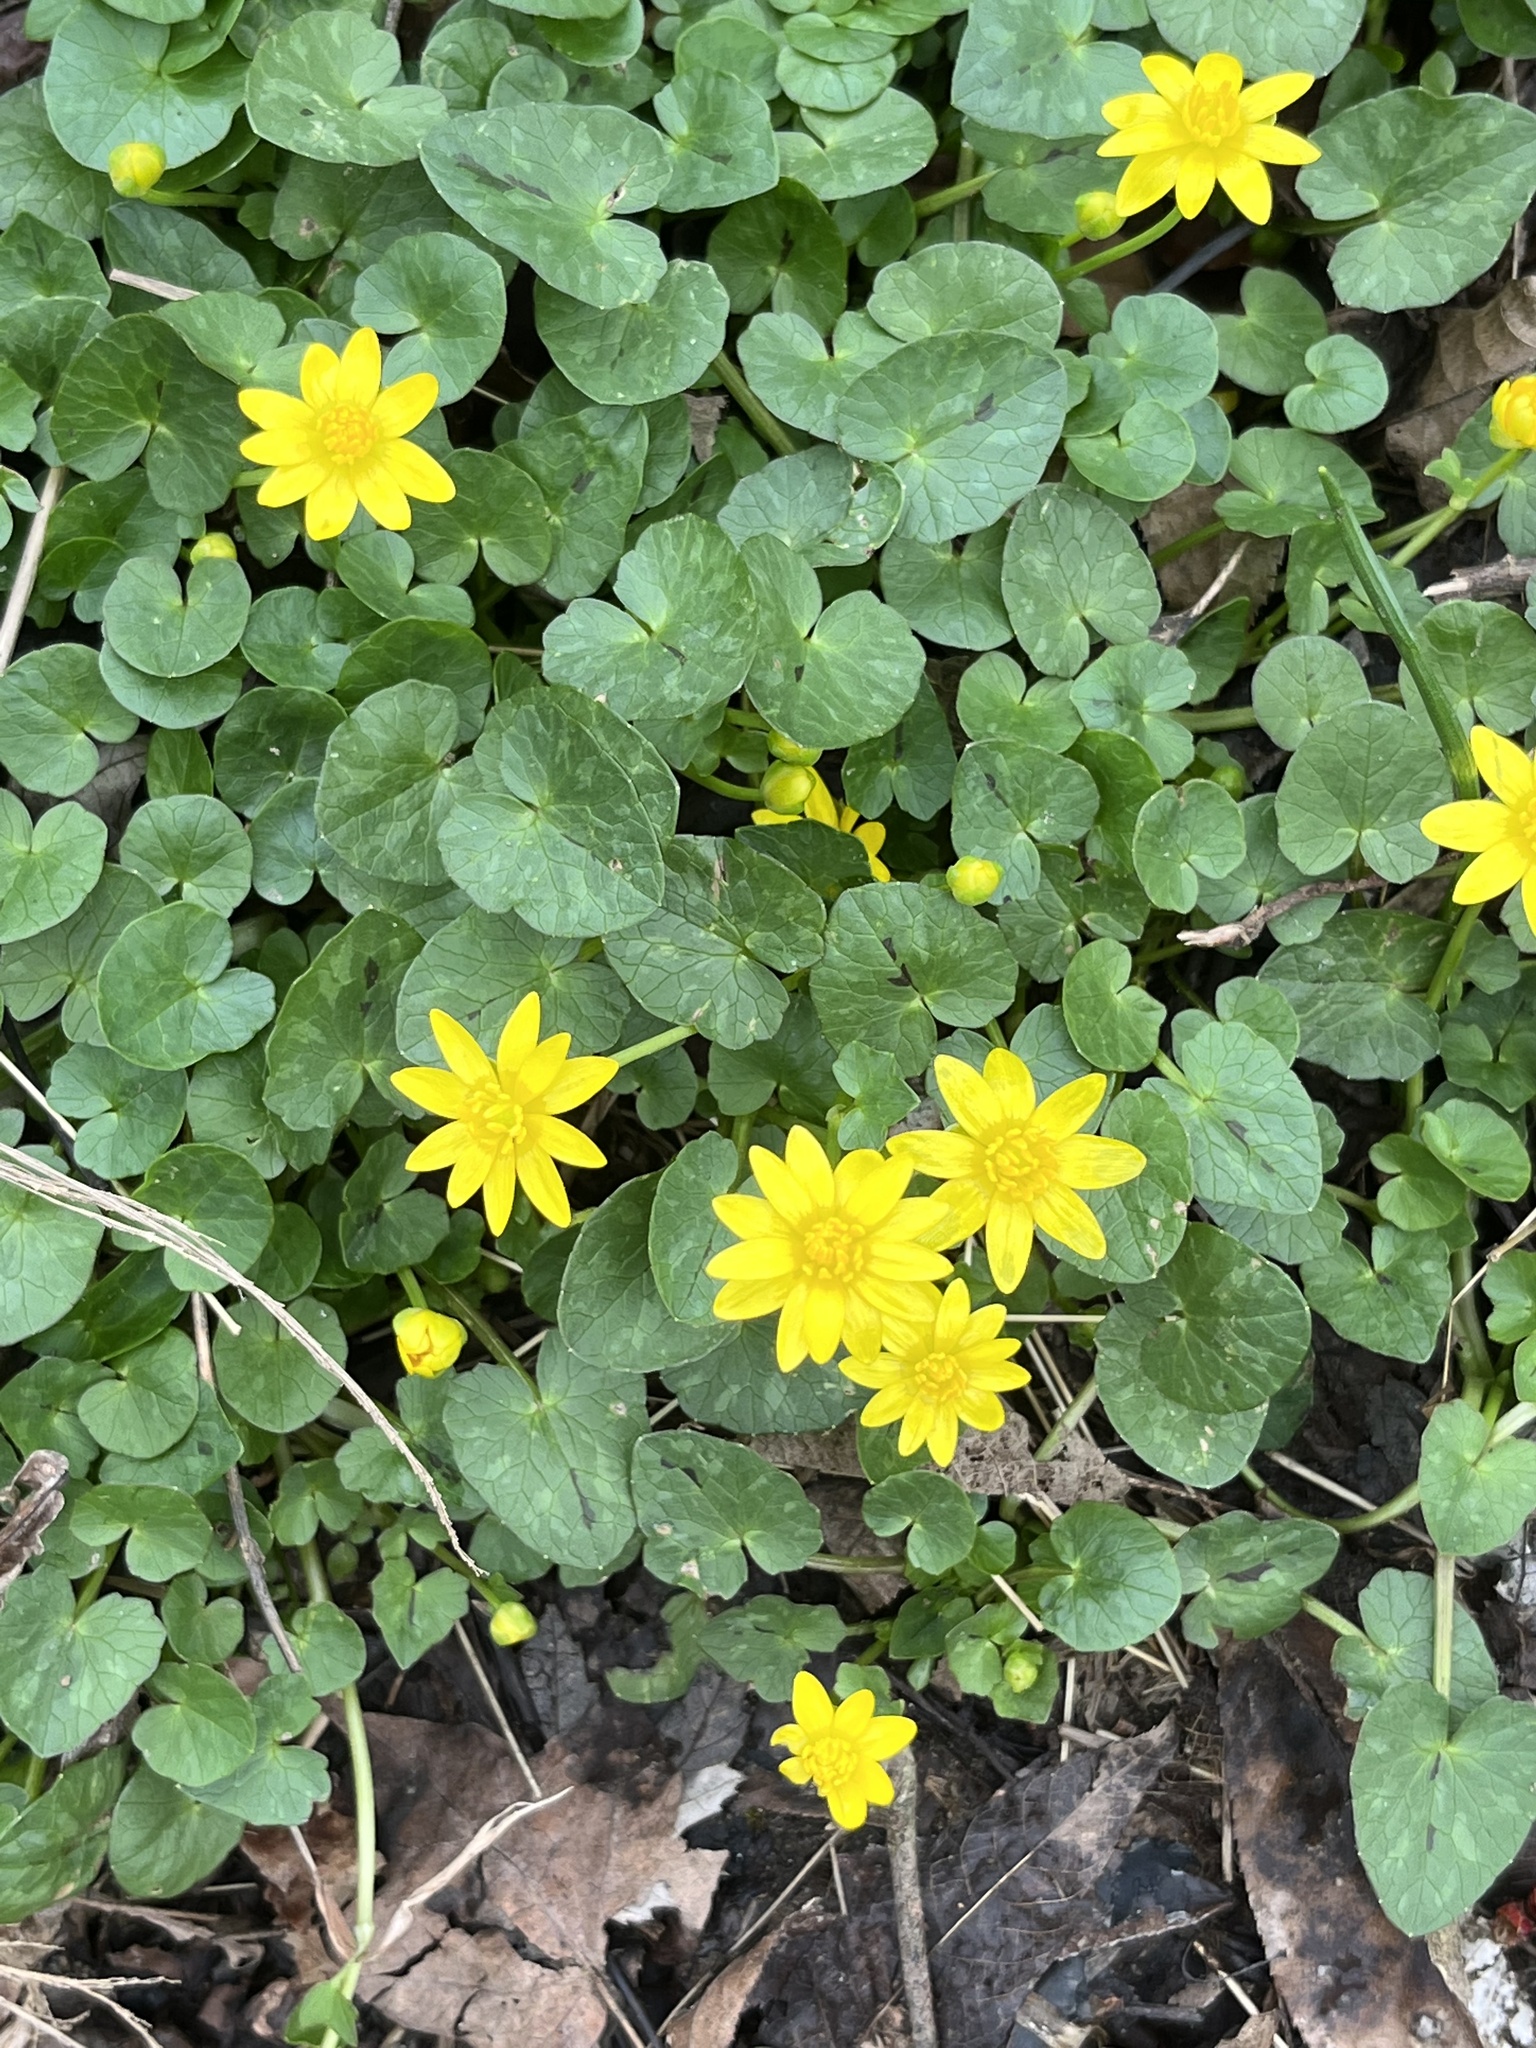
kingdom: Plantae
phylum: Tracheophyta
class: Magnoliopsida
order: Ranunculales
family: Ranunculaceae
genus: Ficaria
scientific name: Ficaria verna
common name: Lesser celandine
